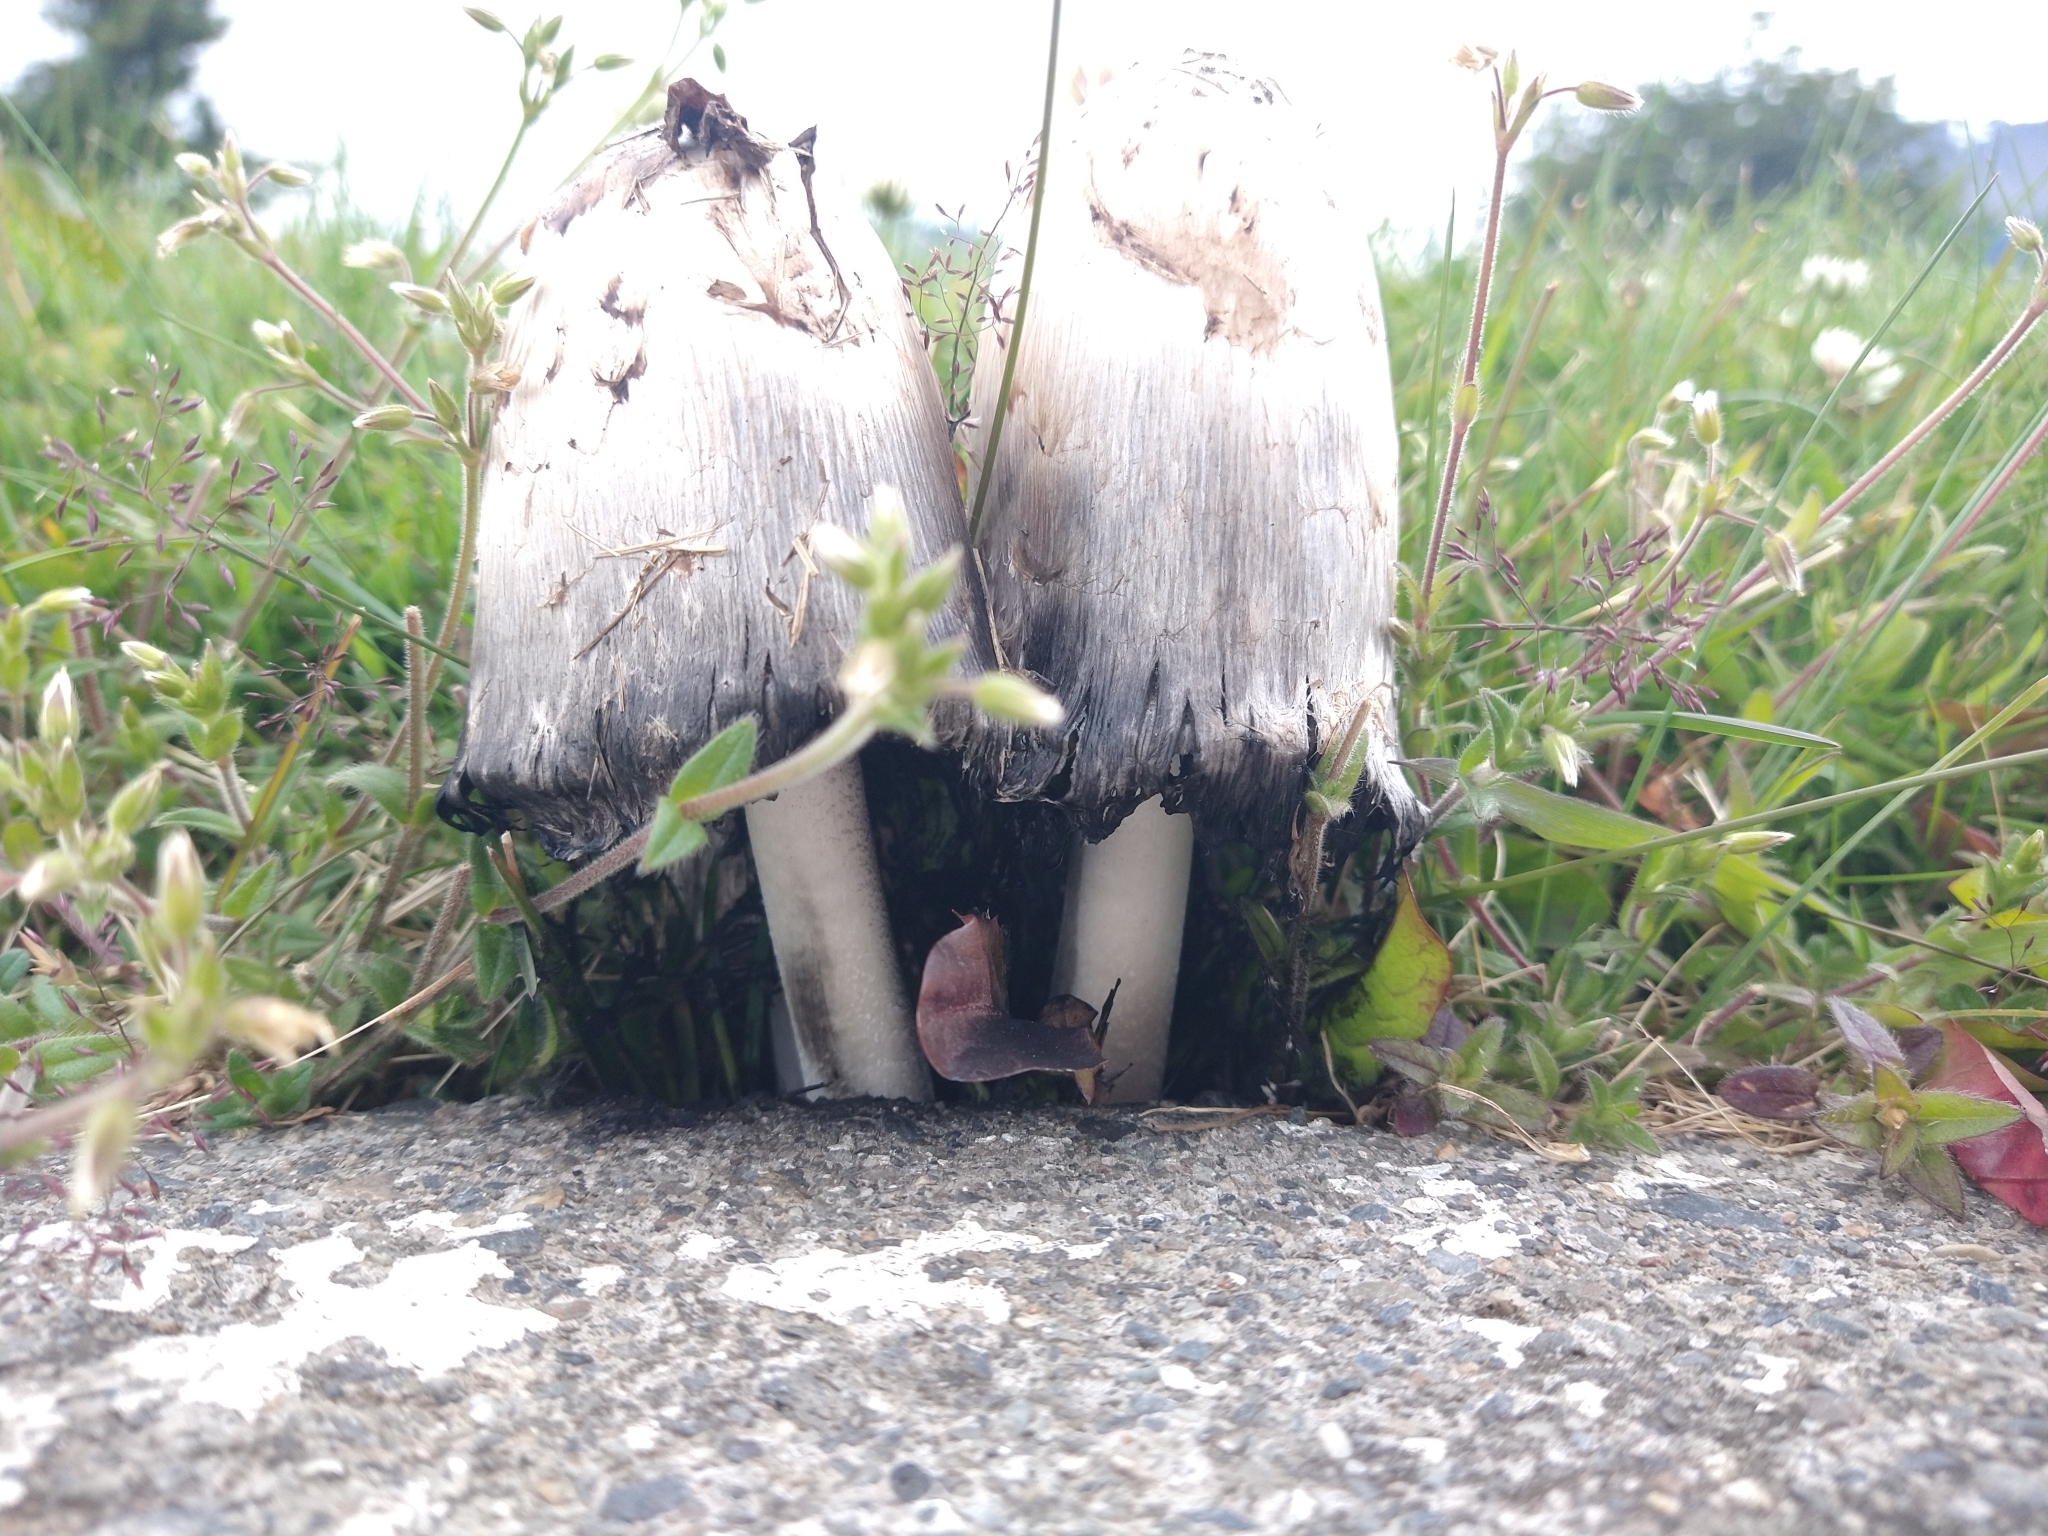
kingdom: Fungi
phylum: Basidiomycota
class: Agaricomycetes
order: Agaricales
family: Agaricaceae
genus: Coprinus
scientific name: Coprinus comatus
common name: Lawyer's wig
